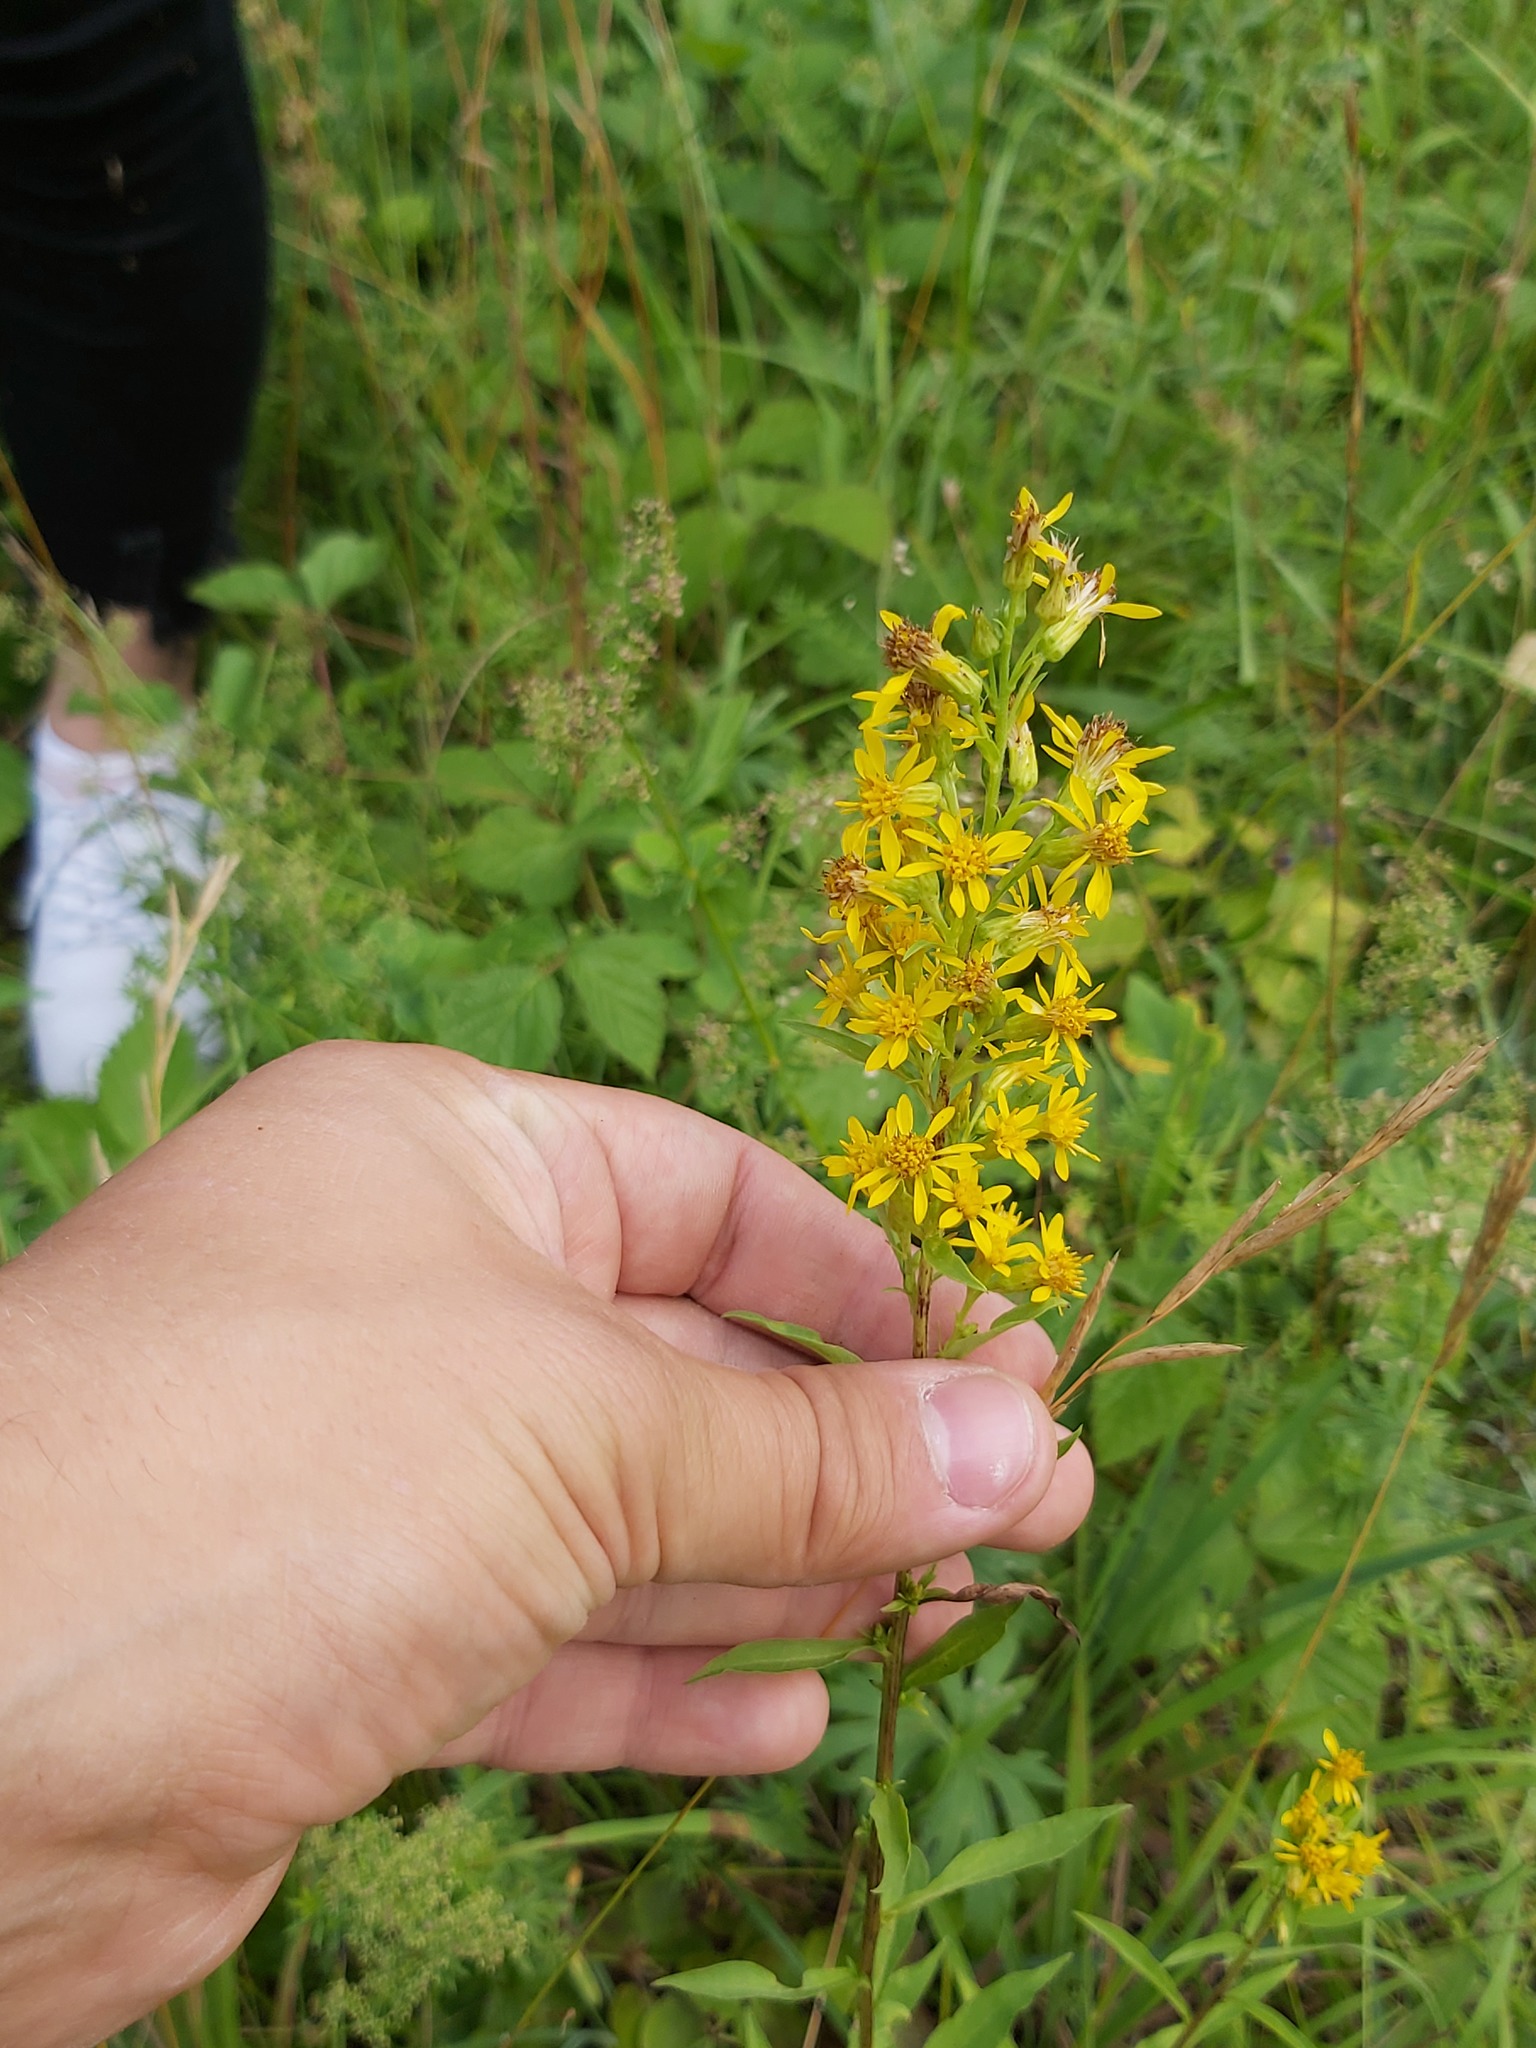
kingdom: Plantae
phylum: Tracheophyta
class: Magnoliopsida
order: Asterales
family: Asteraceae
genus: Solidago
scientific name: Solidago virgaurea
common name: Goldenrod
